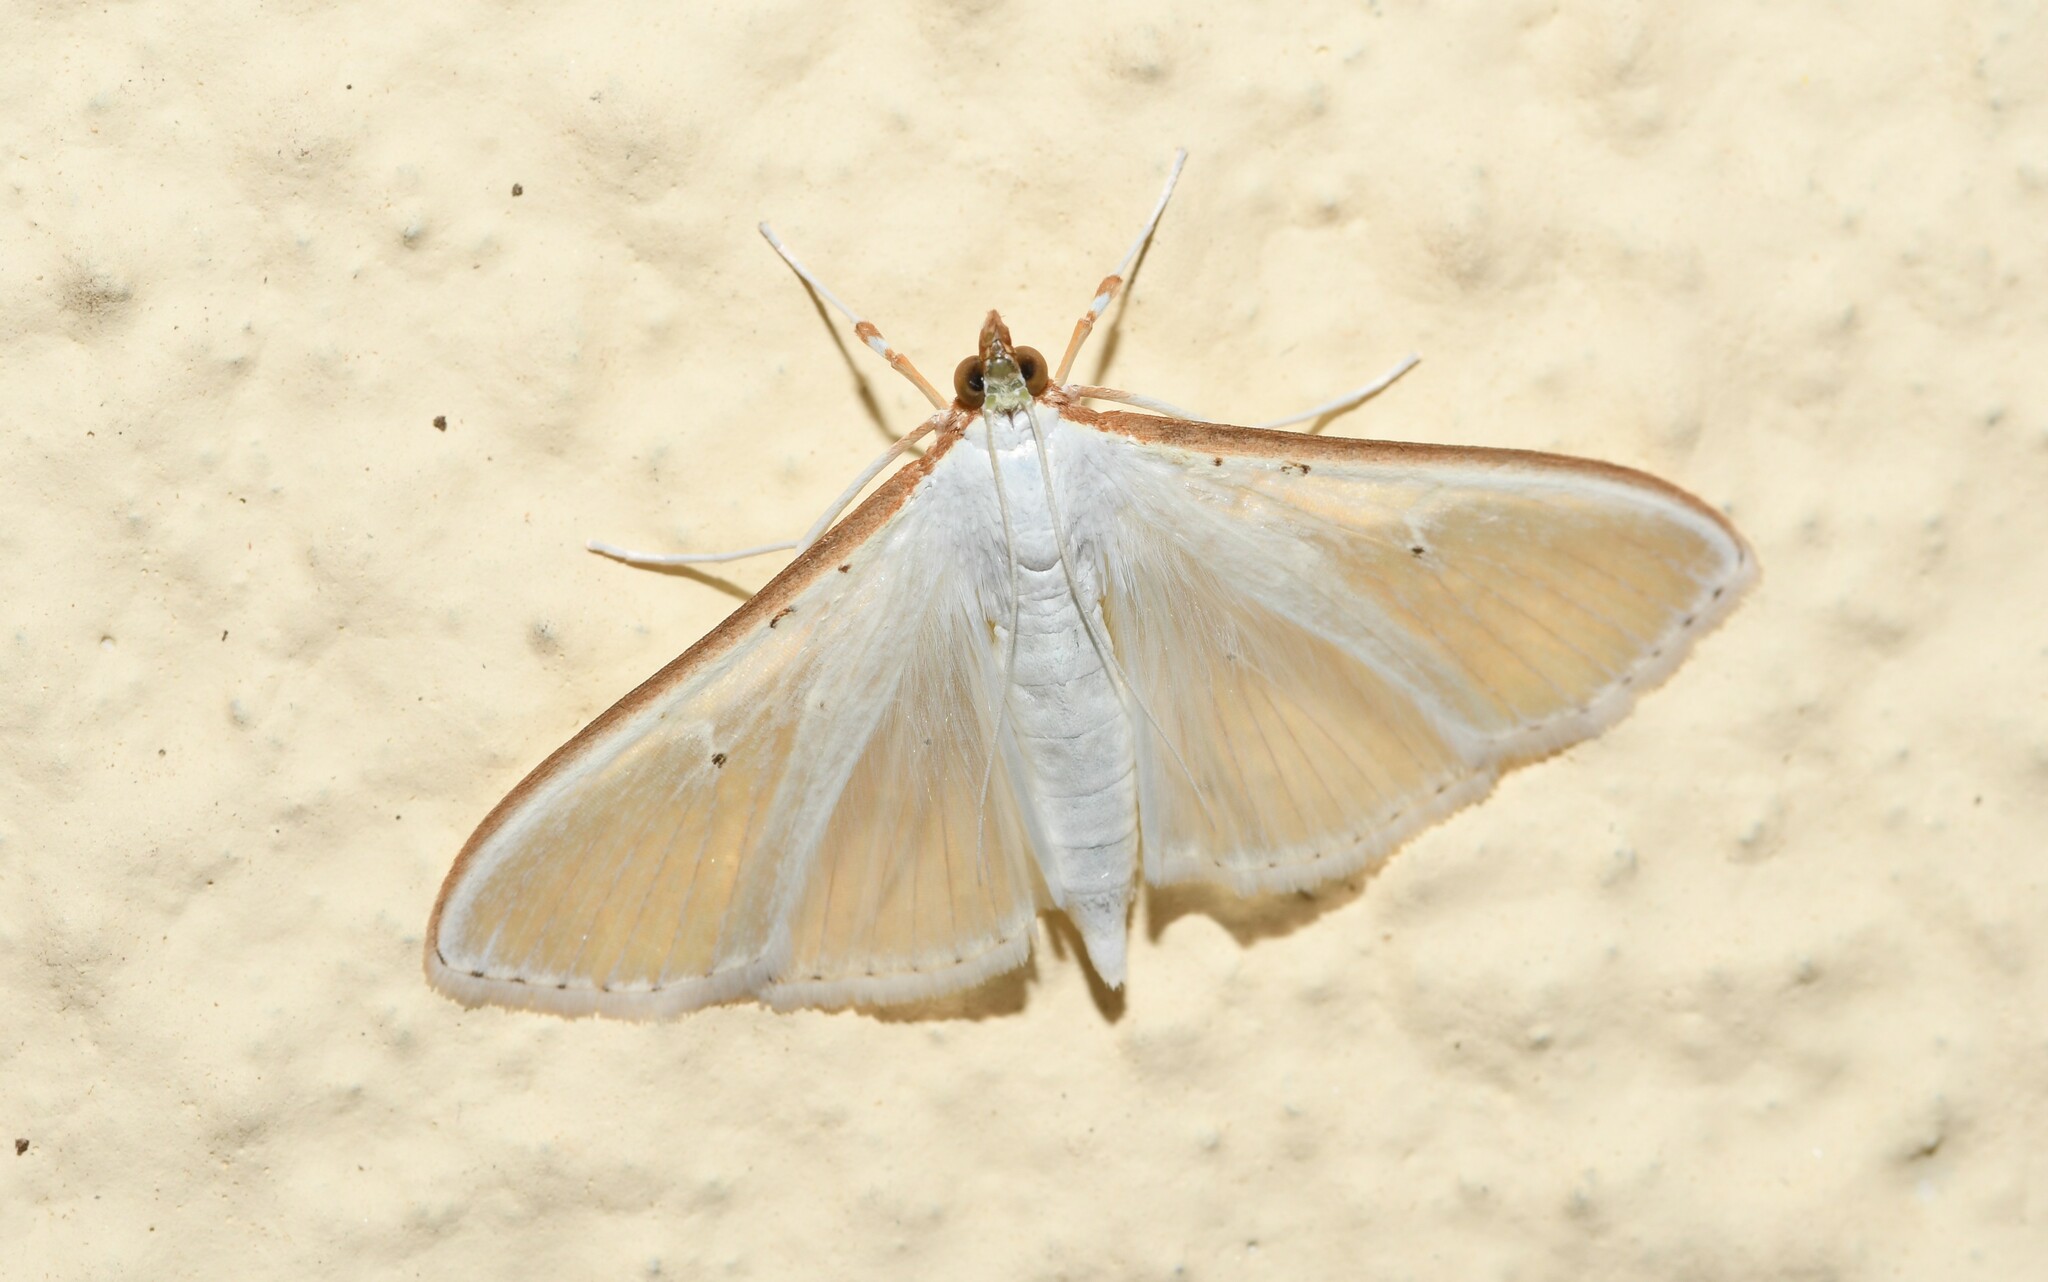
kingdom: Animalia
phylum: Arthropoda
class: Insecta
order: Lepidoptera
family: Crambidae
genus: Palpita
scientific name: Palpita vitrealis
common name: Olive-tree pearl
